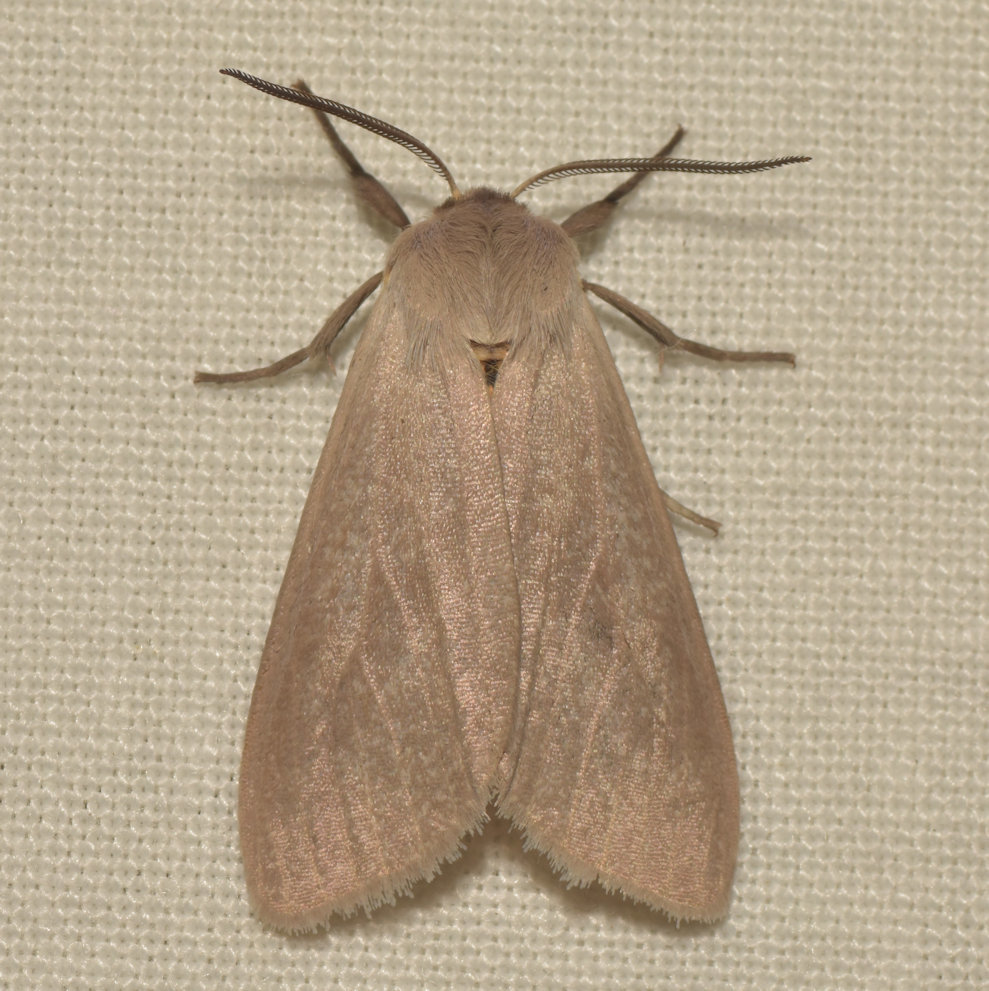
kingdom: Animalia
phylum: Arthropoda
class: Insecta
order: Lepidoptera
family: Erebidae
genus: Euchaetes
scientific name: Euchaetes egle
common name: Milkweed tussock moth
